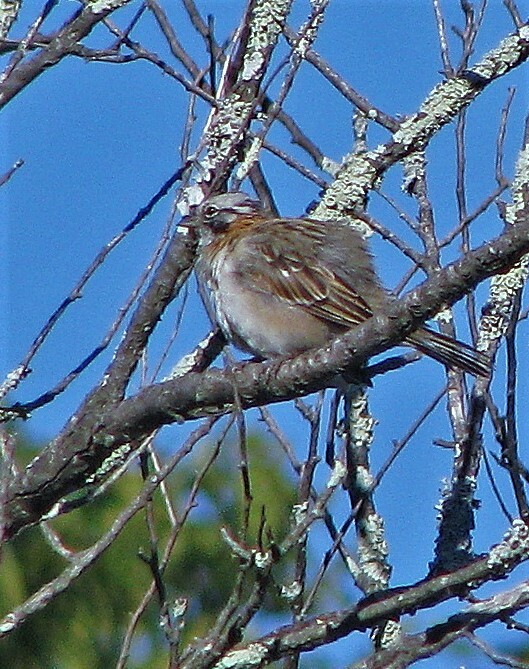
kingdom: Animalia
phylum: Chordata
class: Aves
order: Passeriformes
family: Passerellidae
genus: Zonotrichia
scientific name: Zonotrichia capensis
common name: Rufous-collared sparrow
